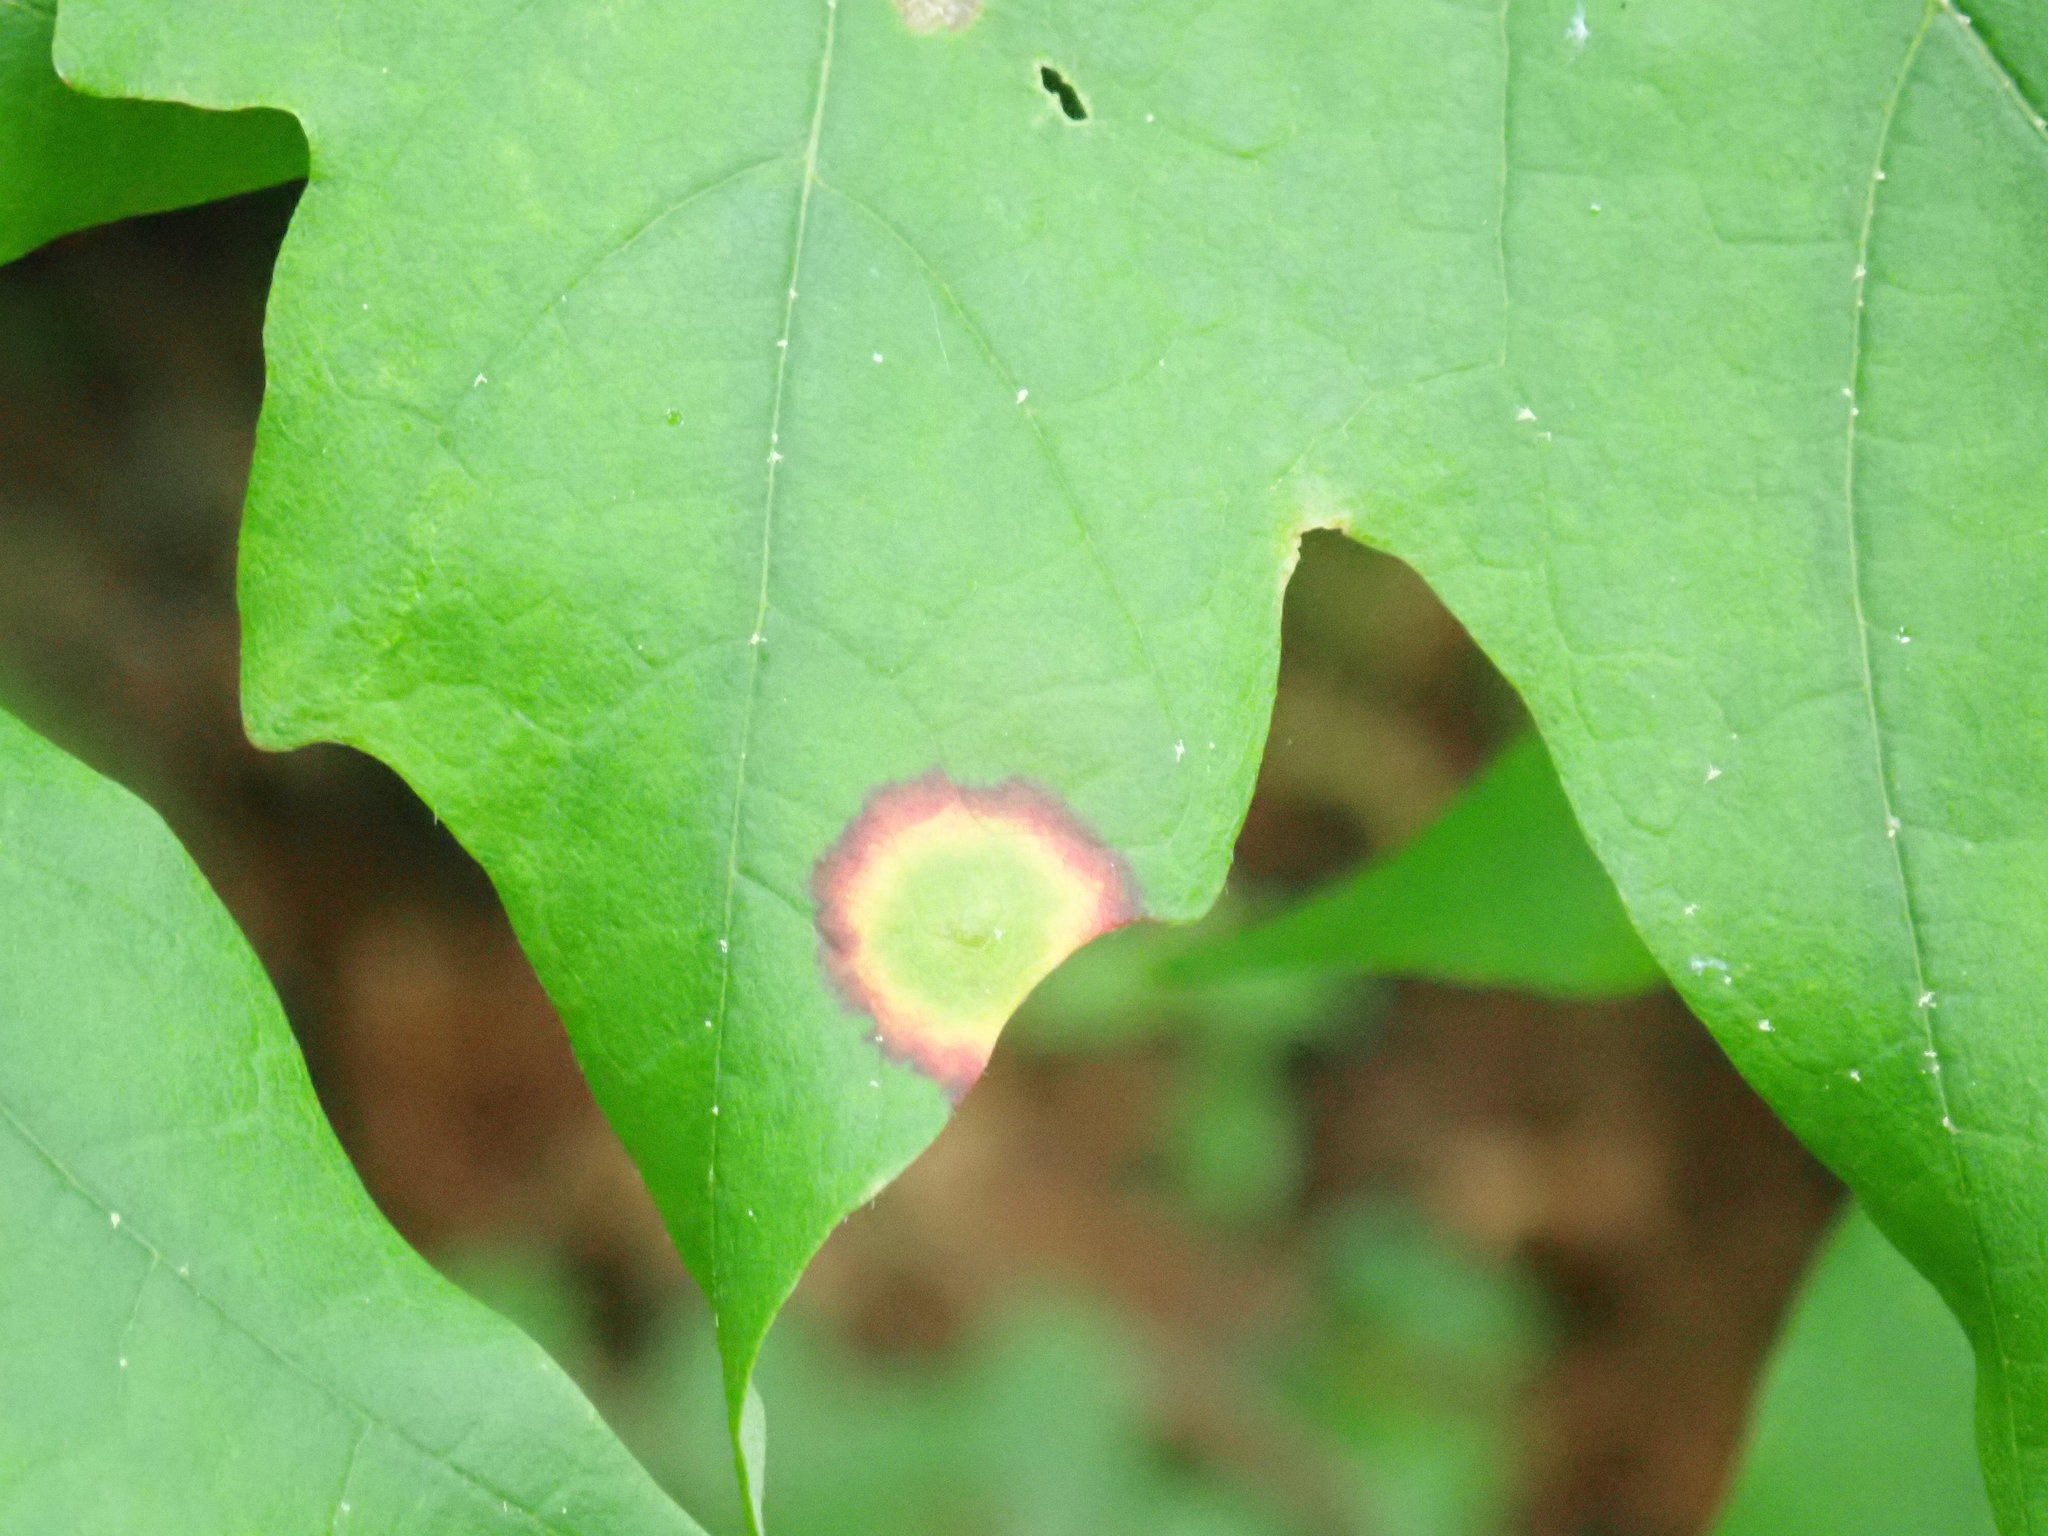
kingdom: Animalia
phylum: Arthropoda
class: Insecta
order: Diptera
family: Cecidomyiidae
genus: Acericecis
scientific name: Acericecis ocellaris
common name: Ocellate gall midge
